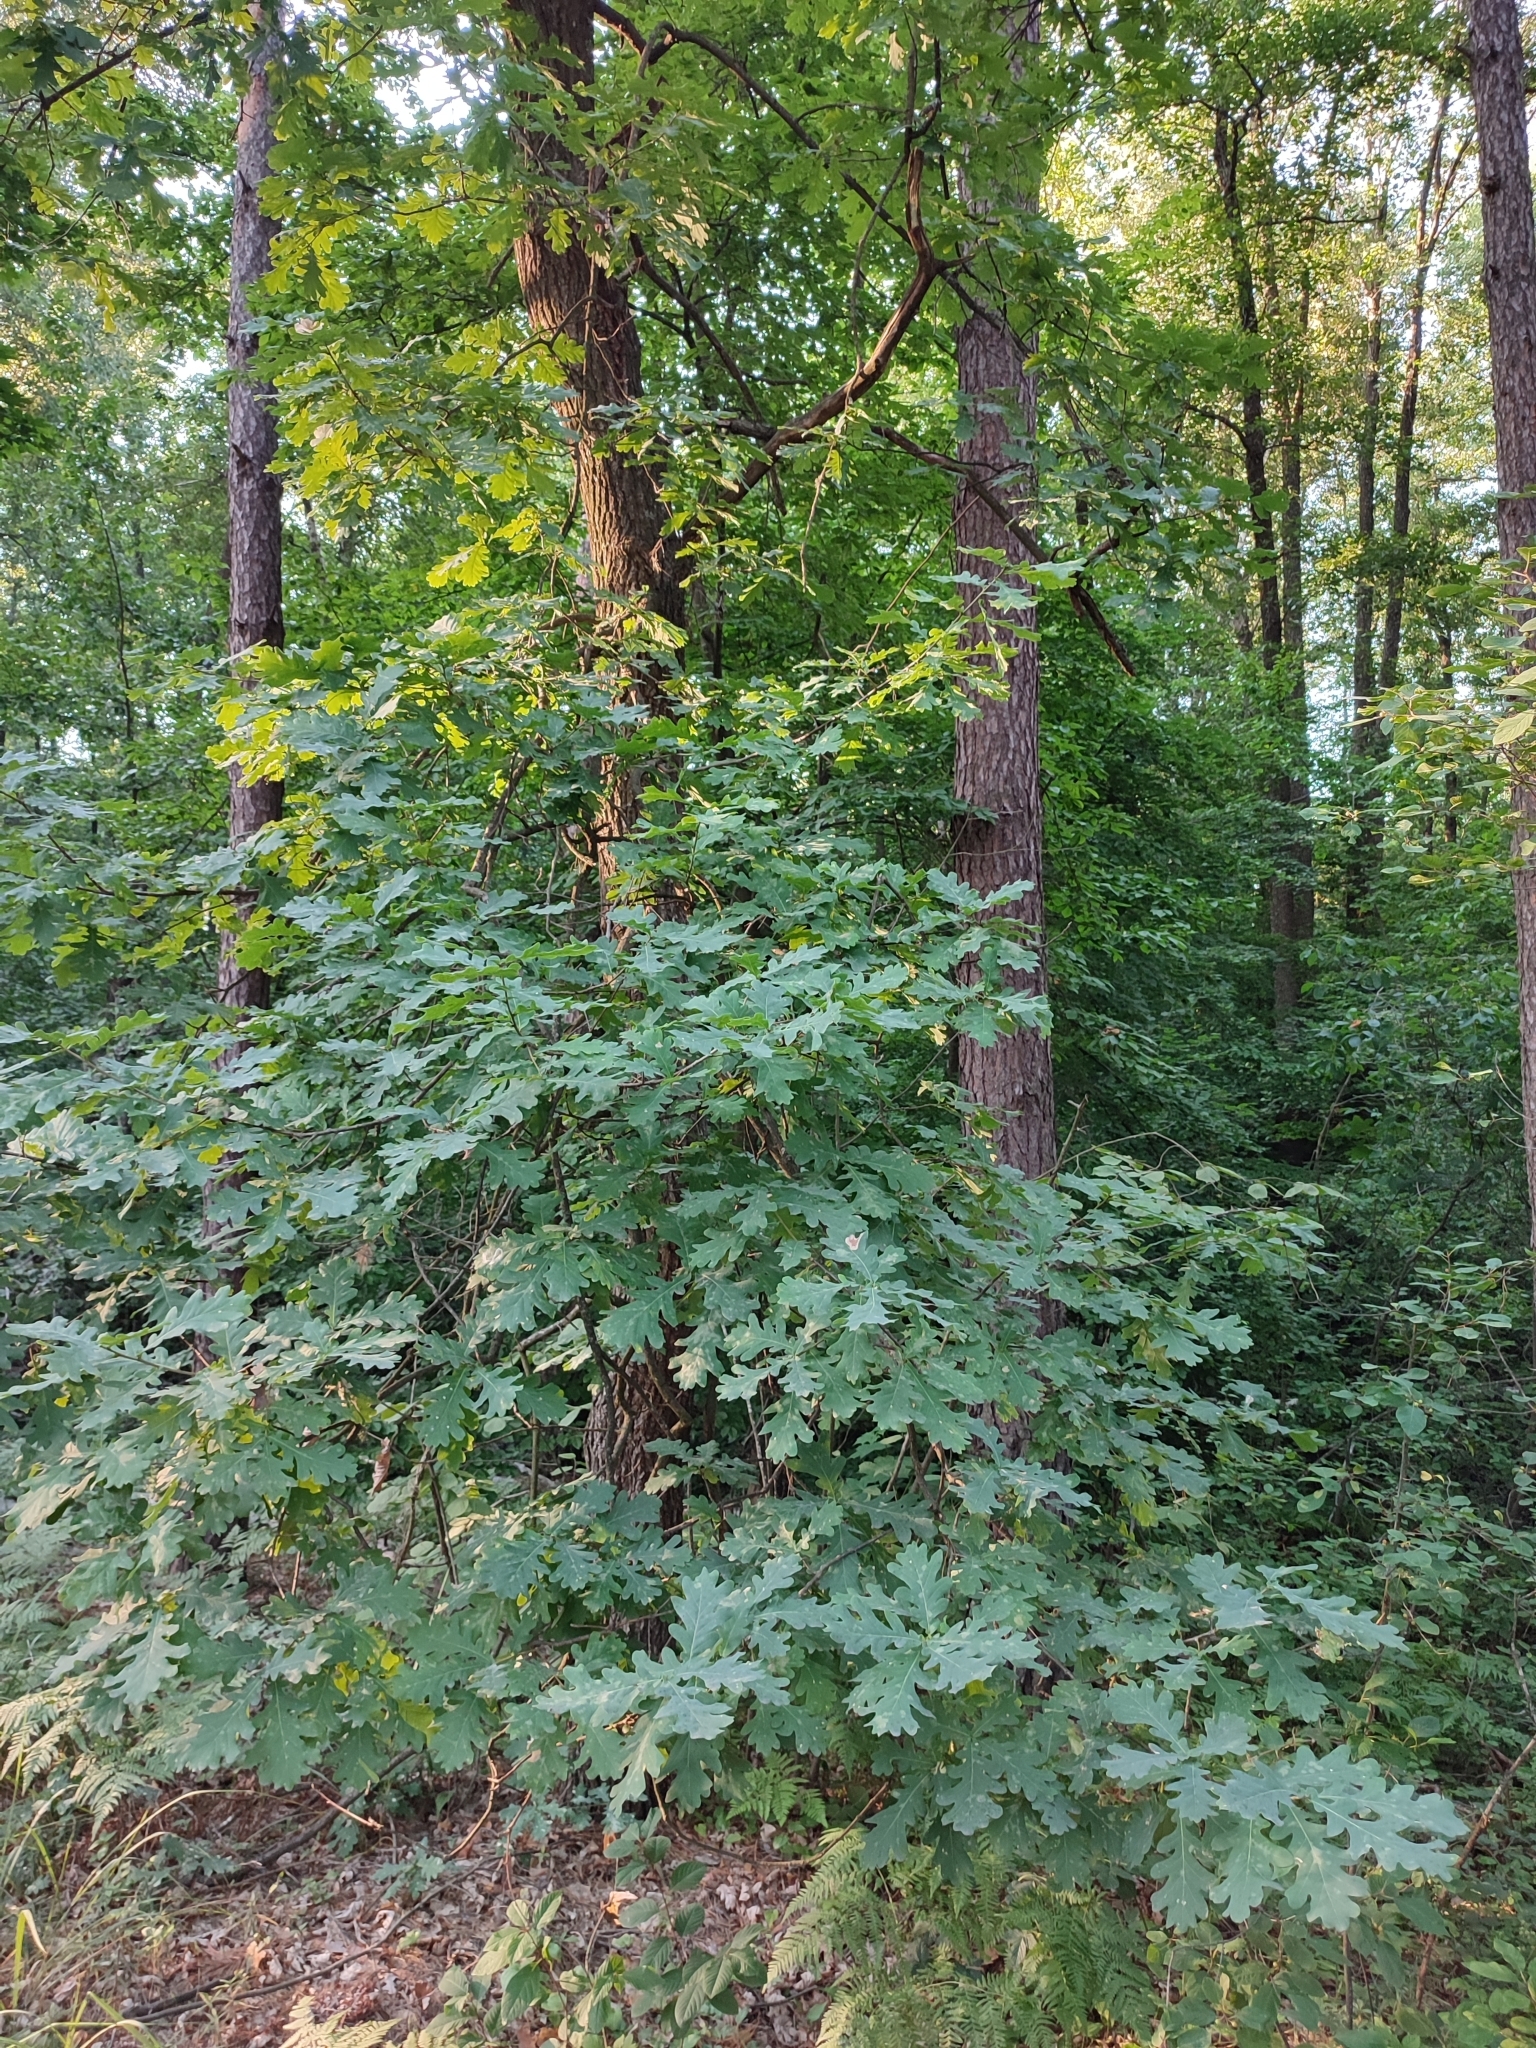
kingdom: Plantae
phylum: Tracheophyta
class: Magnoliopsida
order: Fagales
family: Fagaceae
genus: Quercus
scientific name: Quercus robur
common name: Pedunculate oak
